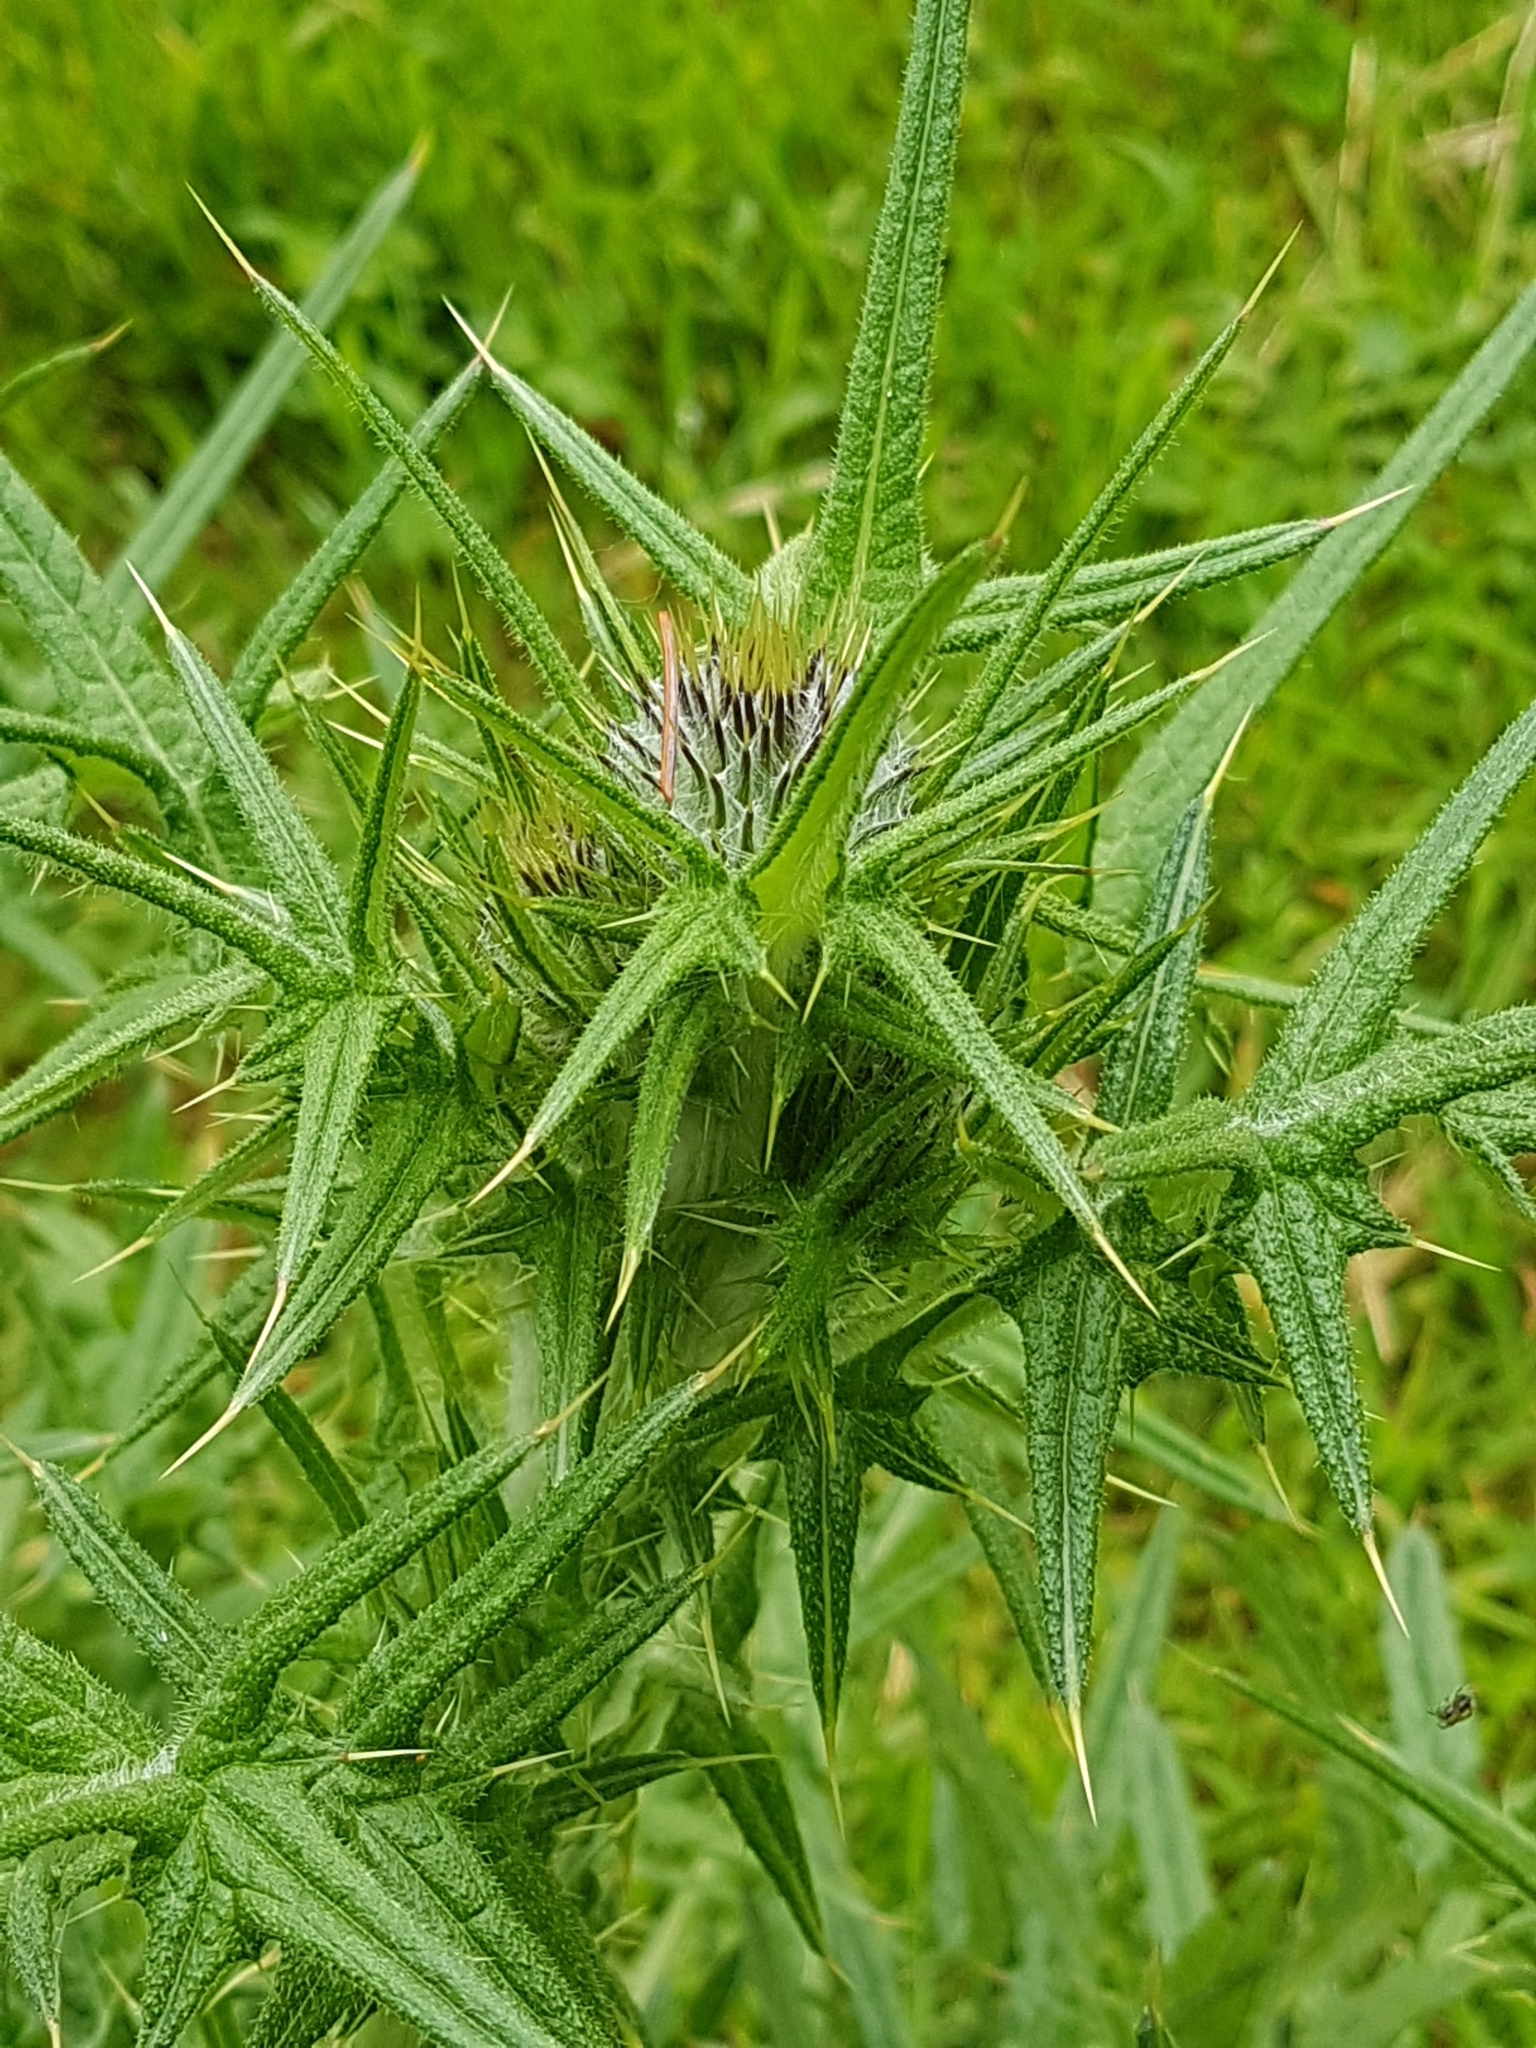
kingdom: Plantae
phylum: Tracheophyta
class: Magnoliopsida
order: Asterales
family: Asteraceae
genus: Cirsium
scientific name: Cirsium vulgare
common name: Bull thistle
